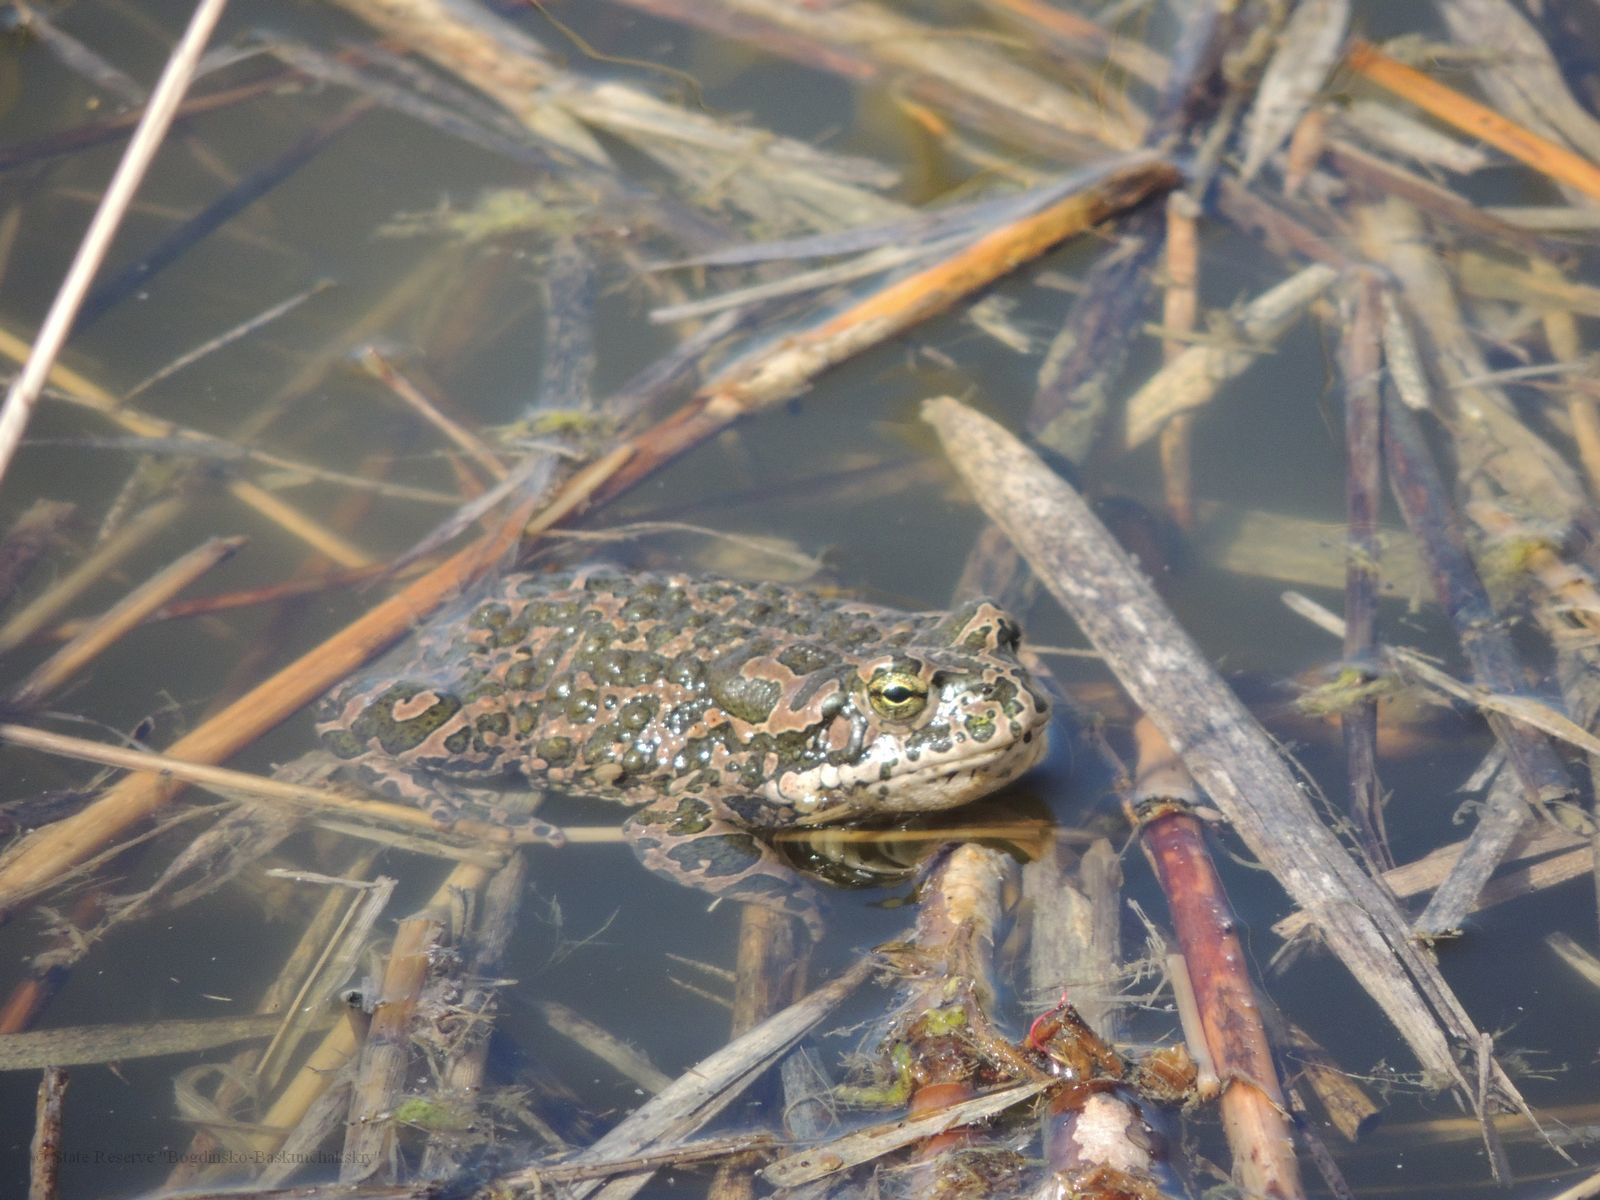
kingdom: Animalia
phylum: Chordata
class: Amphibia
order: Anura
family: Bufonidae
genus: Bufotes
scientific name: Bufotes viridis
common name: European green toad
